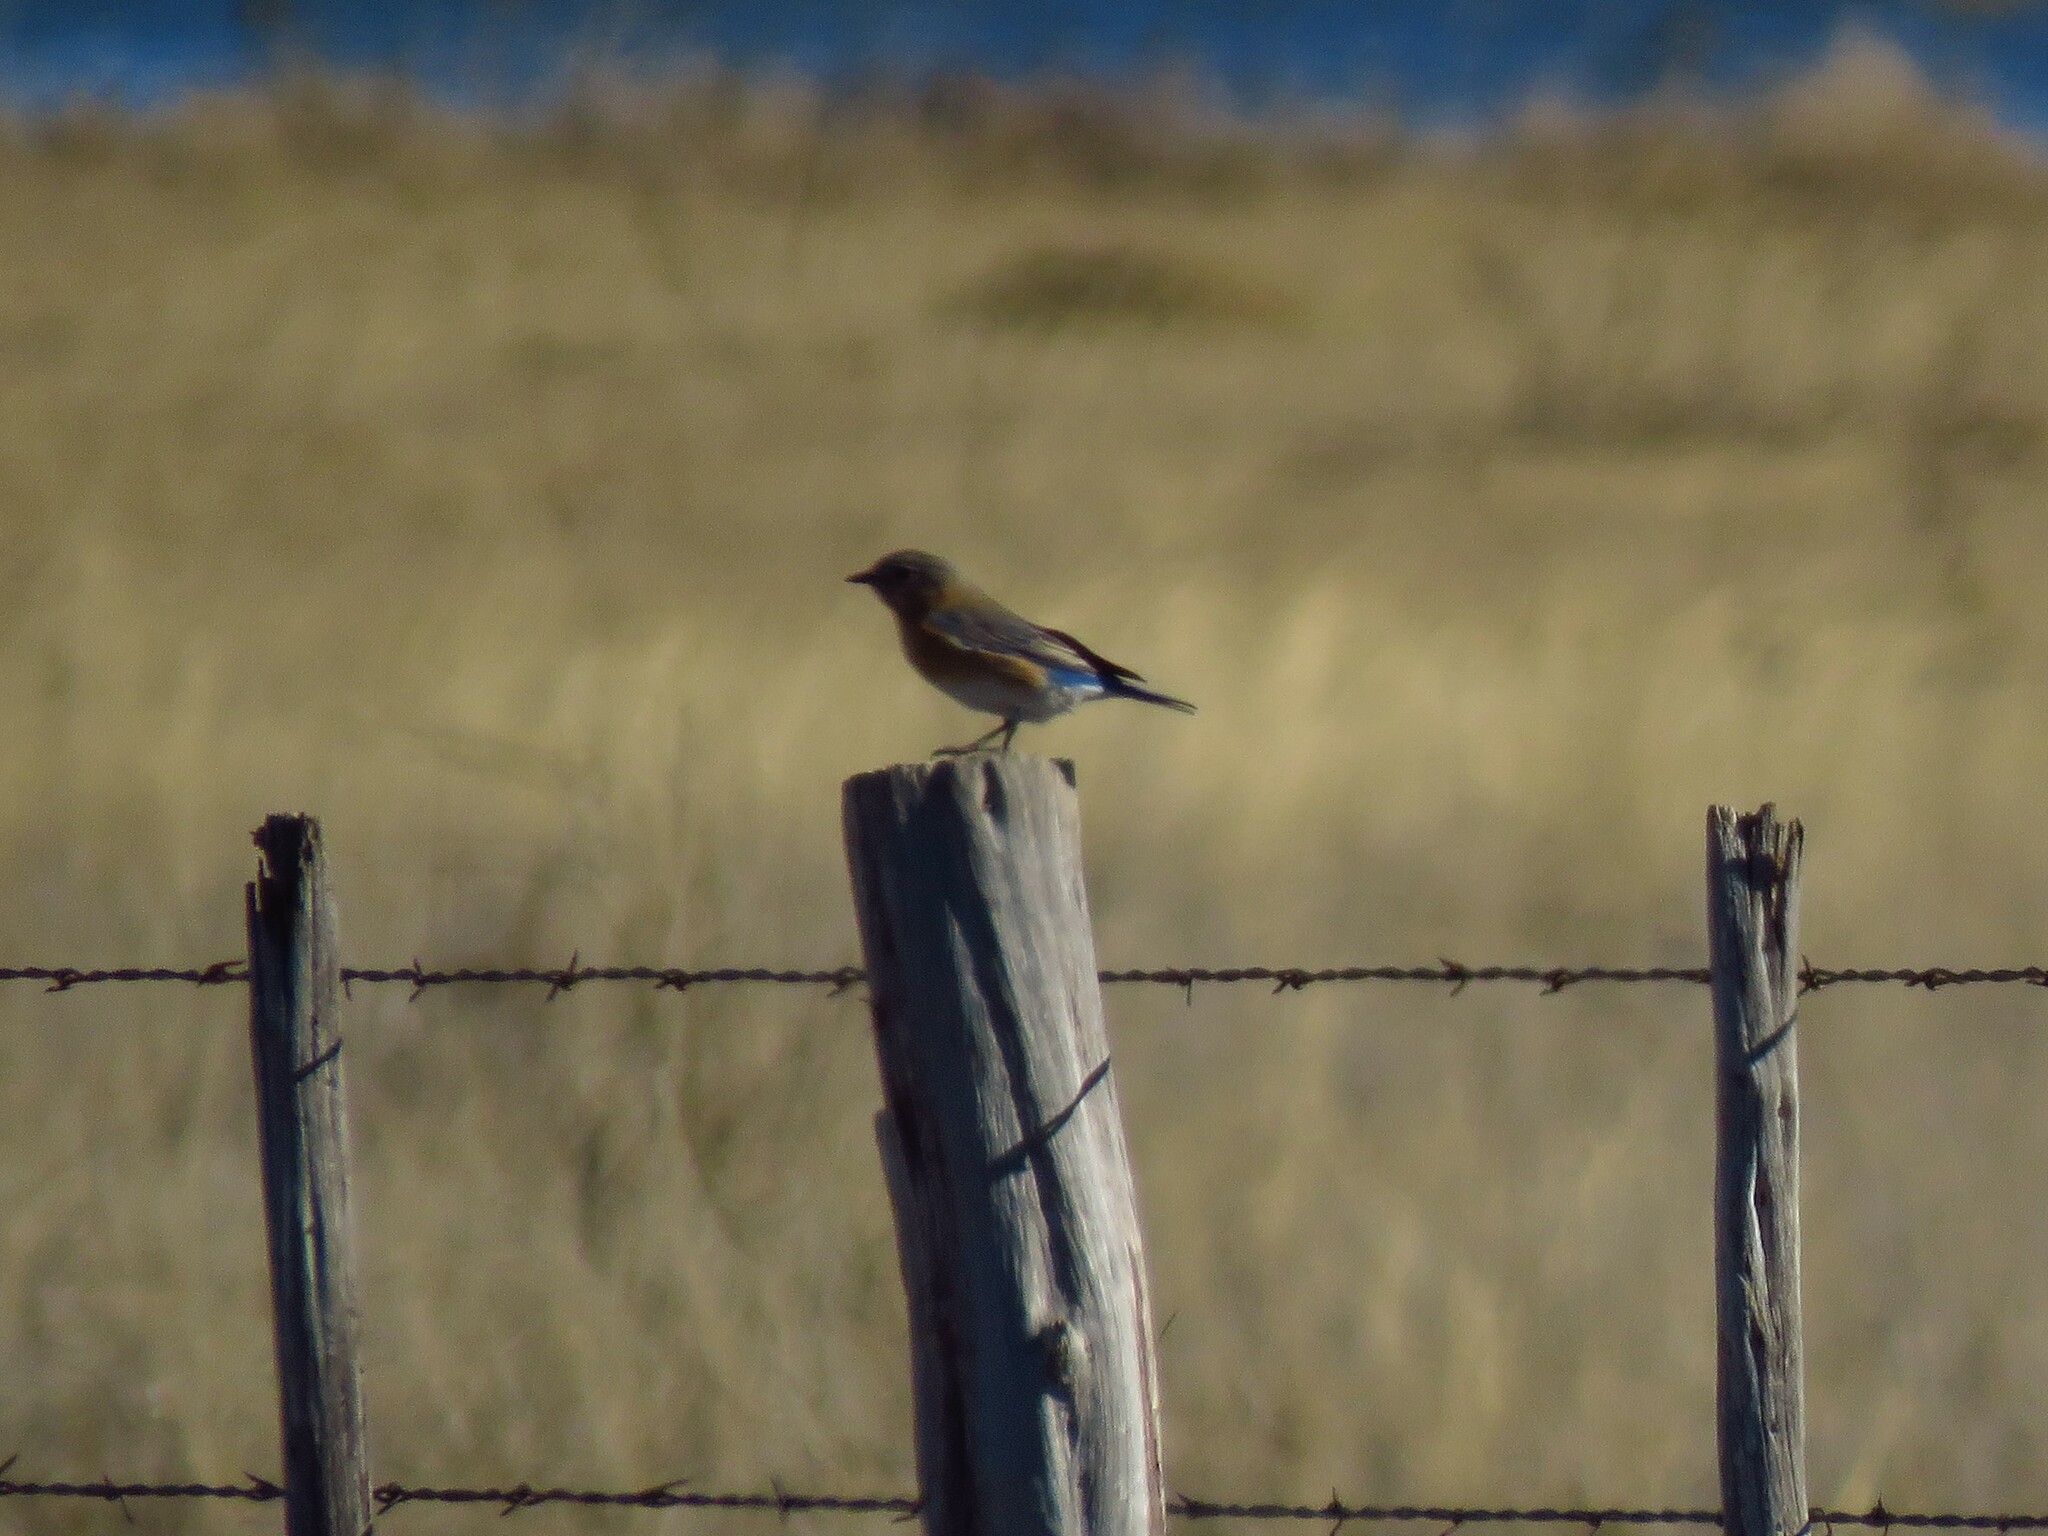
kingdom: Animalia
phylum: Chordata
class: Aves
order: Passeriformes
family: Turdidae
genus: Sialia
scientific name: Sialia sialis
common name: Eastern bluebird
